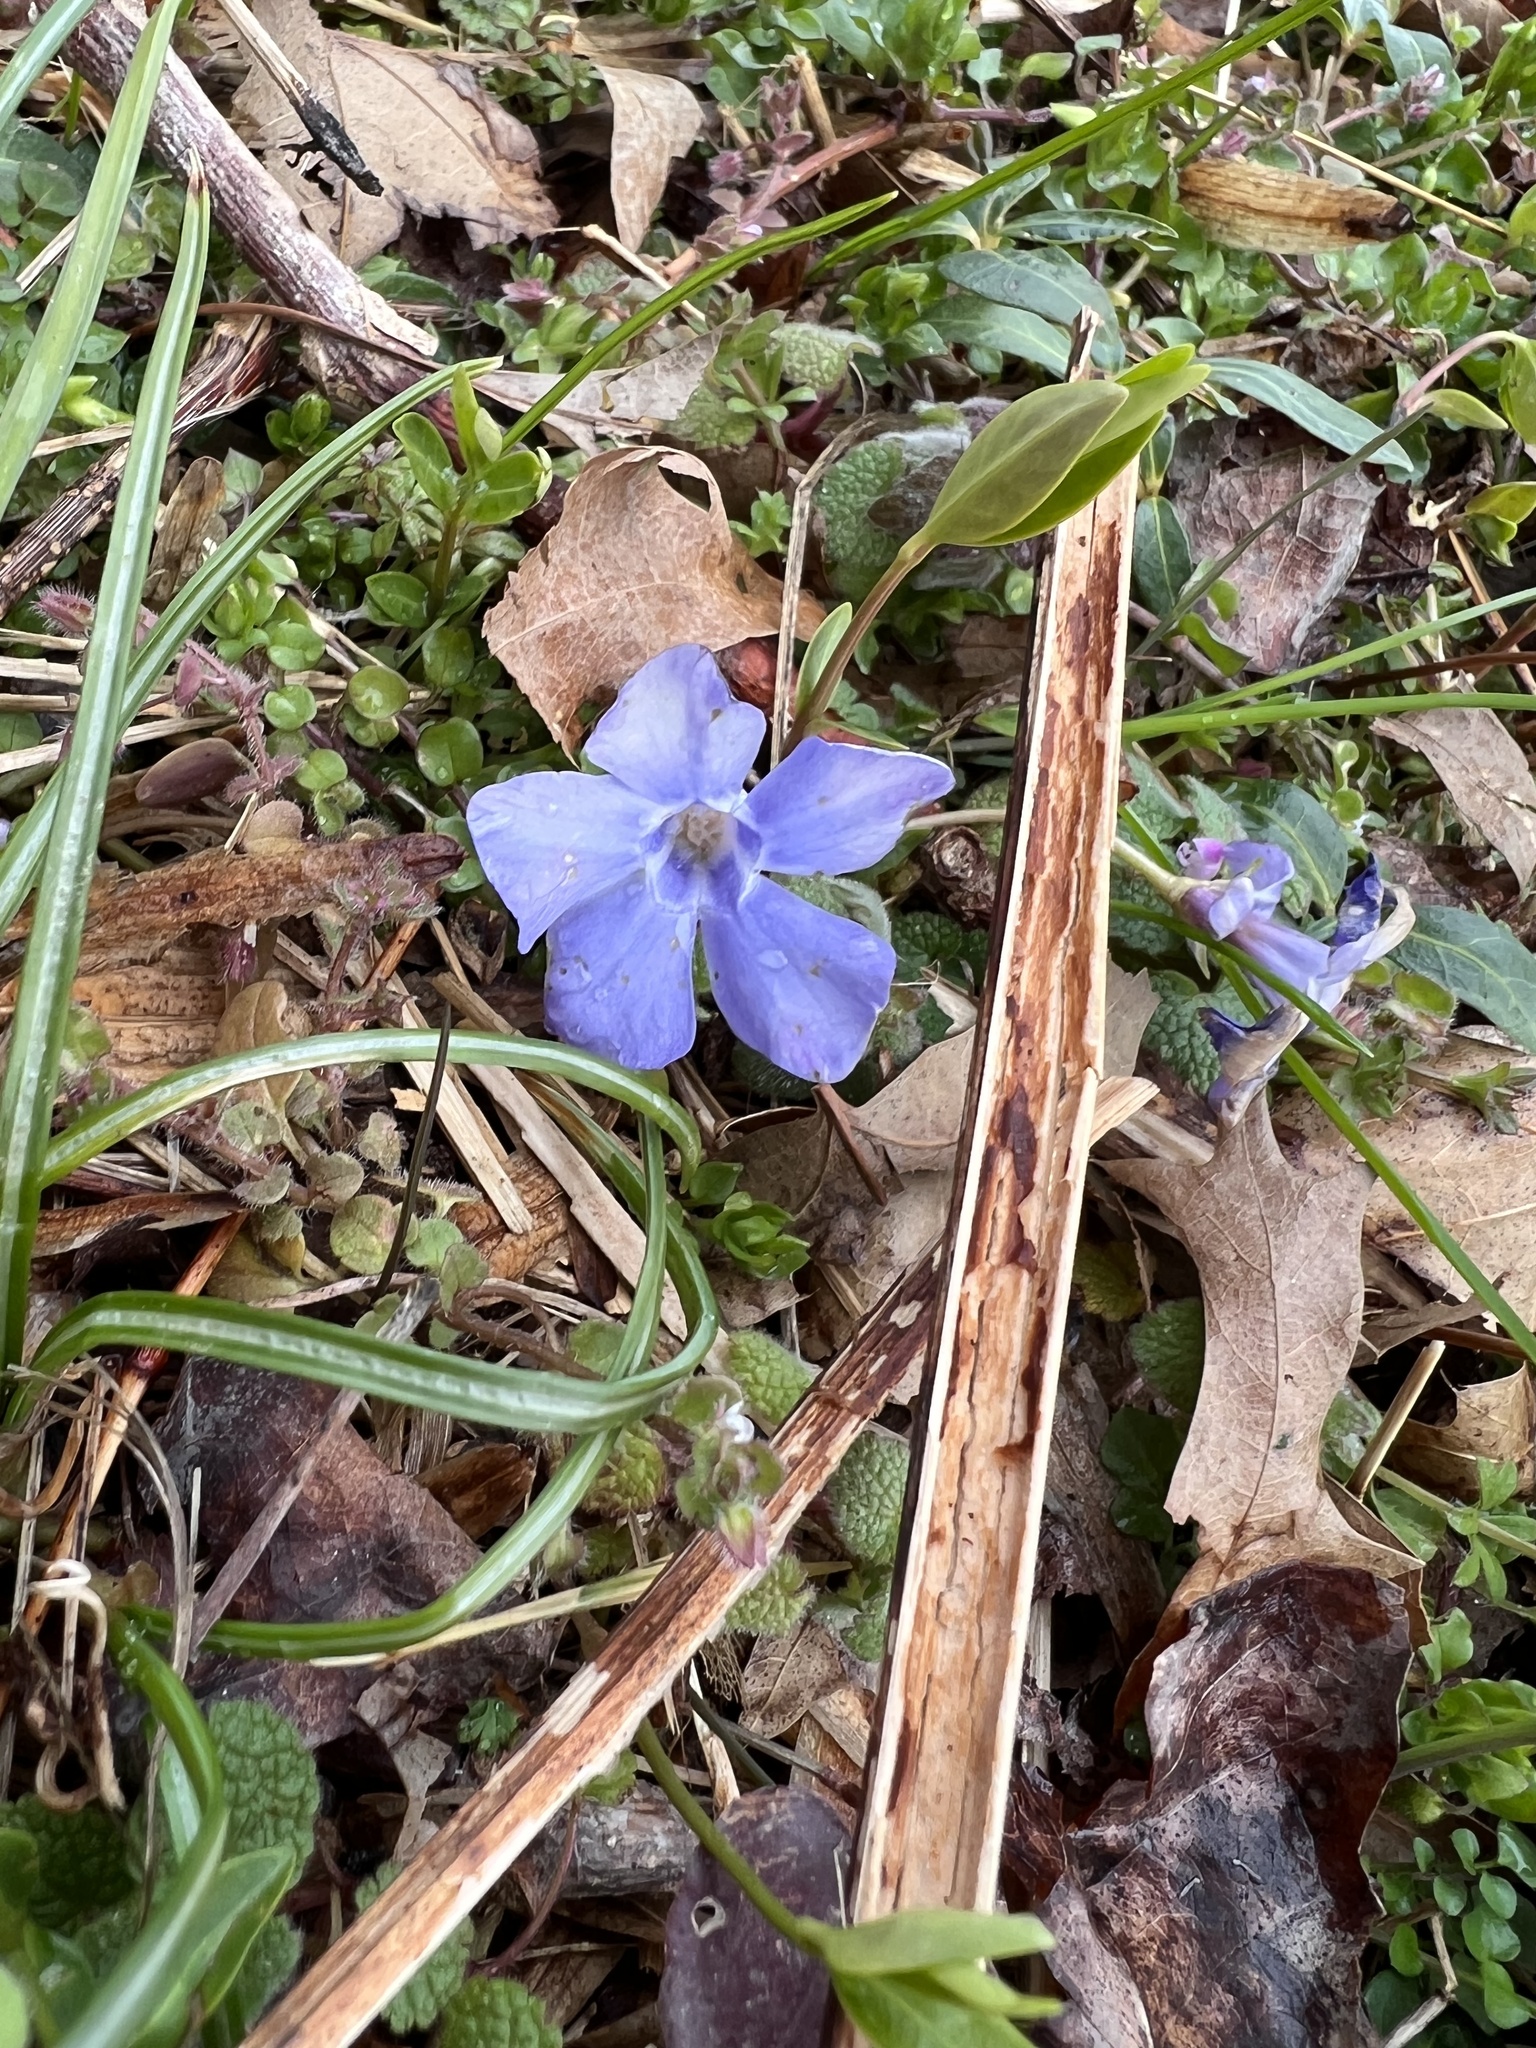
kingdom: Plantae
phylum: Tracheophyta
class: Magnoliopsida
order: Gentianales
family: Apocynaceae
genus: Vinca
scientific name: Vinca minor
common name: Lesser periwinkle
